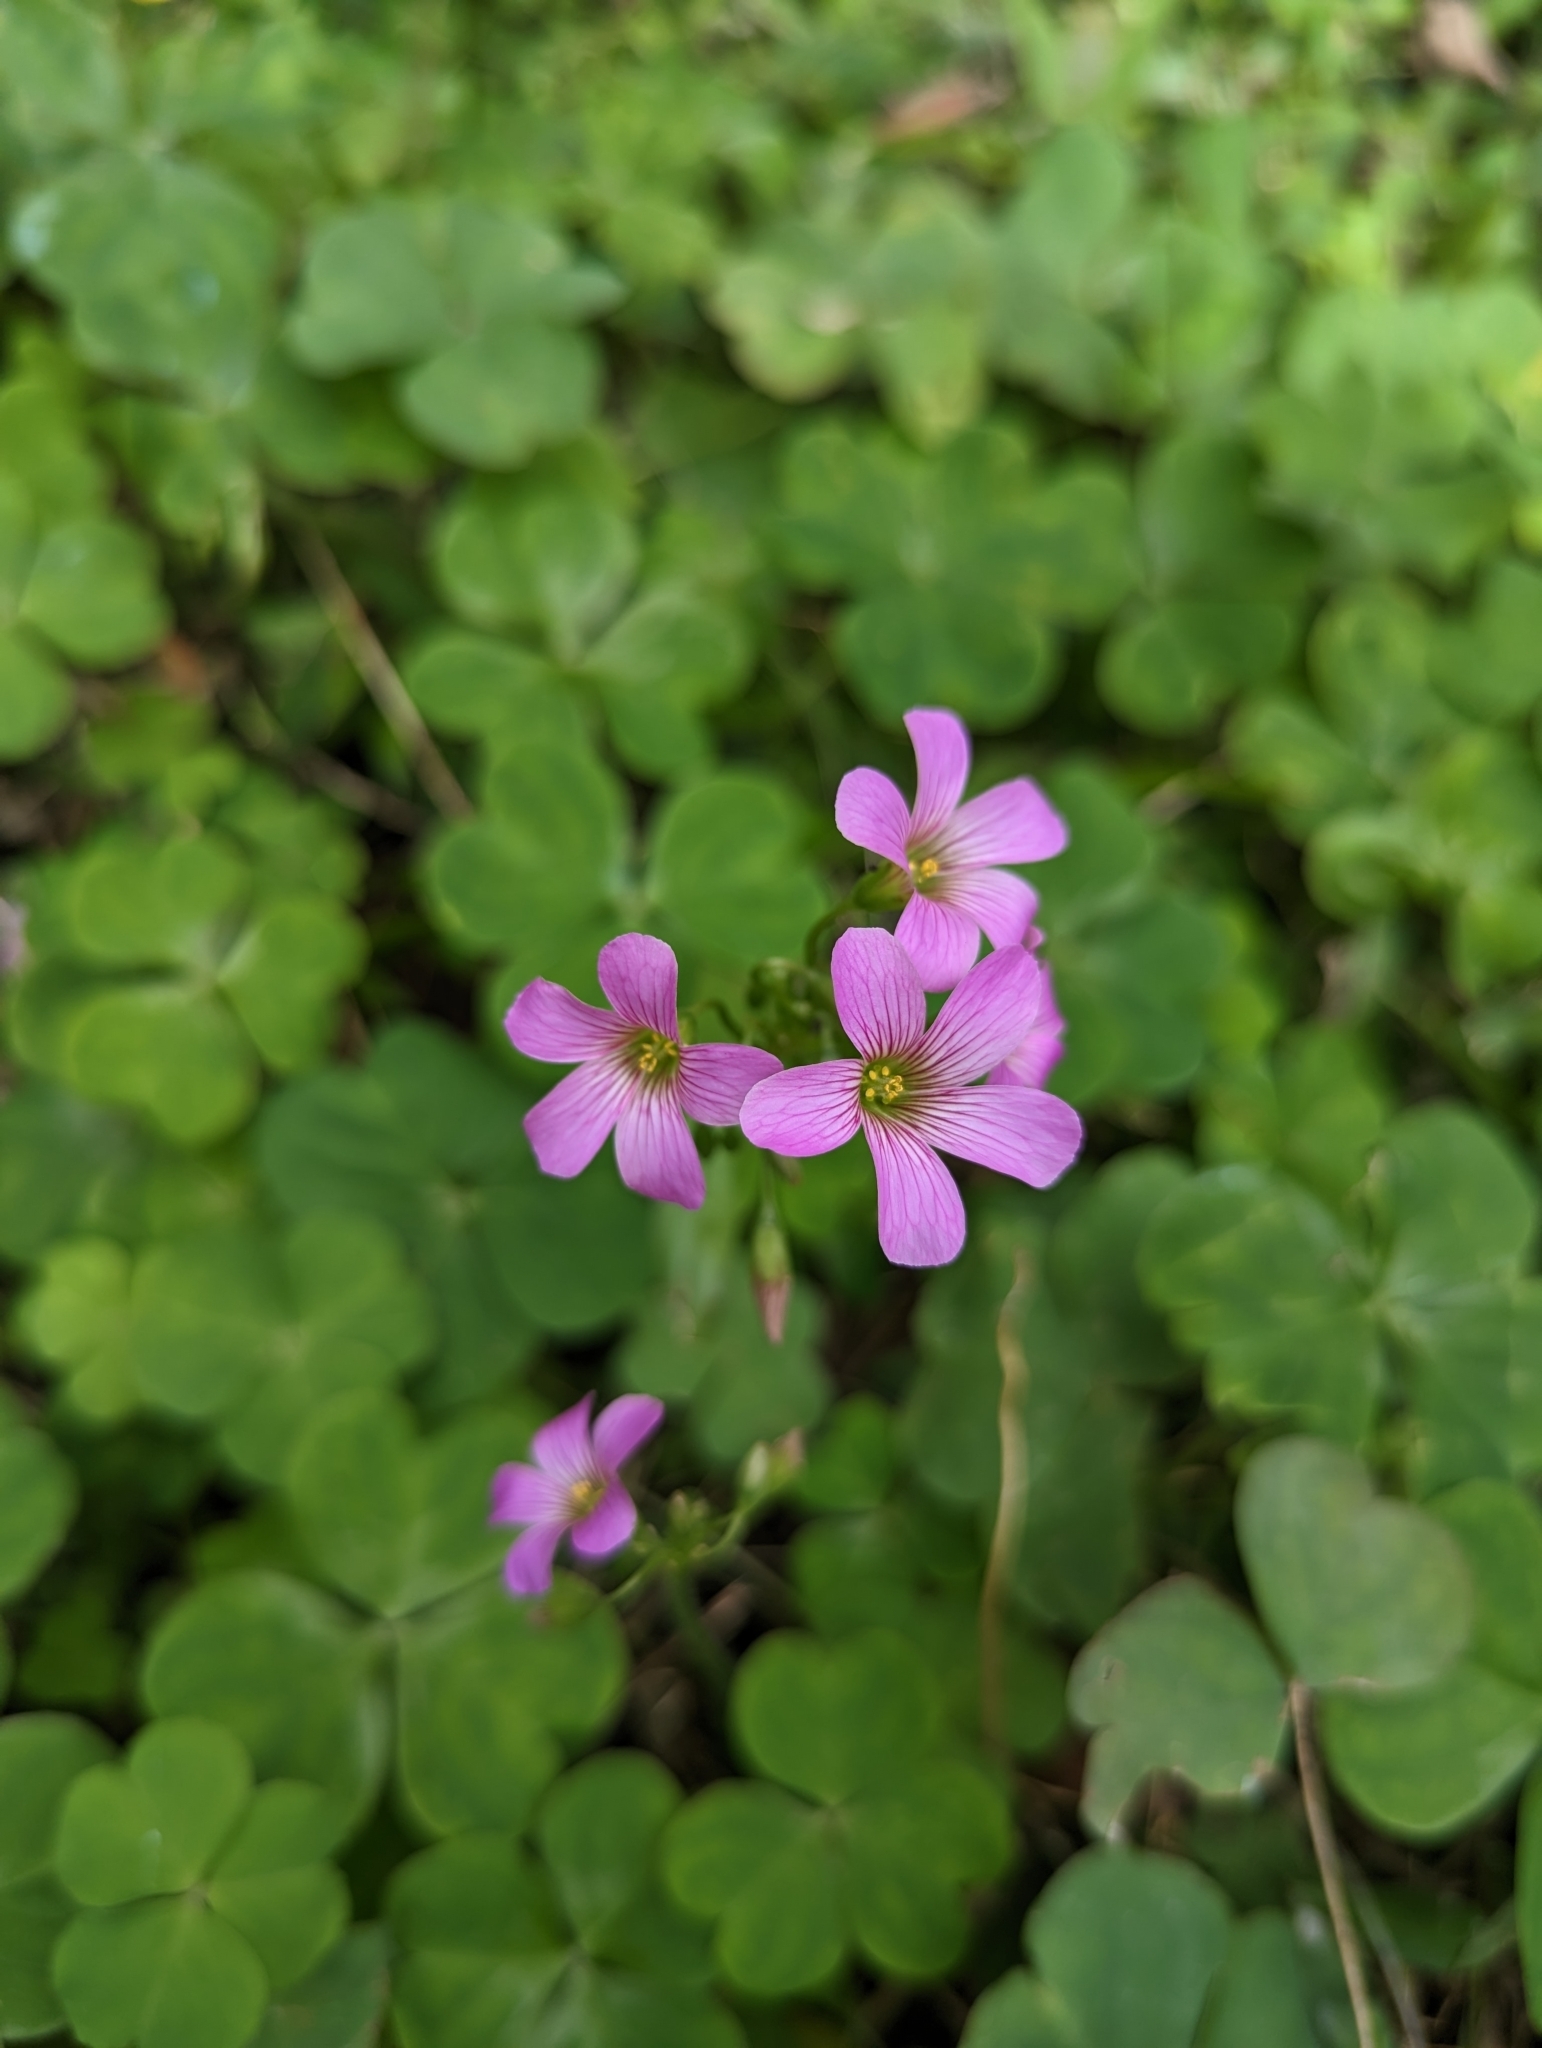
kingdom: Plantae
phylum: Tracheophyta
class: Magnoliopsida
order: Oxalidales
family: Oxalidaceae
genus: Oxalis
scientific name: Oxalis debilis
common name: Large-flowered pink-sorrel
